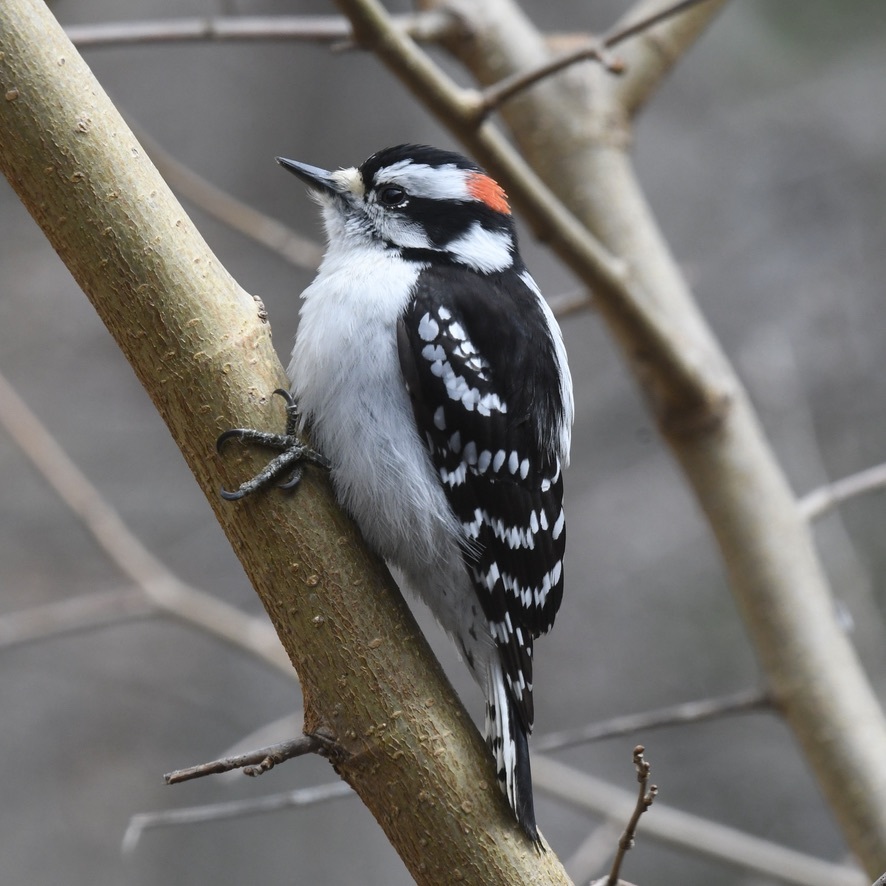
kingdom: Animalia
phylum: Chordata
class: Aves
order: Piciformes
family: Picidae
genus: Dryobates
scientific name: Dryobates pubescens
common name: Downy woodpecker
